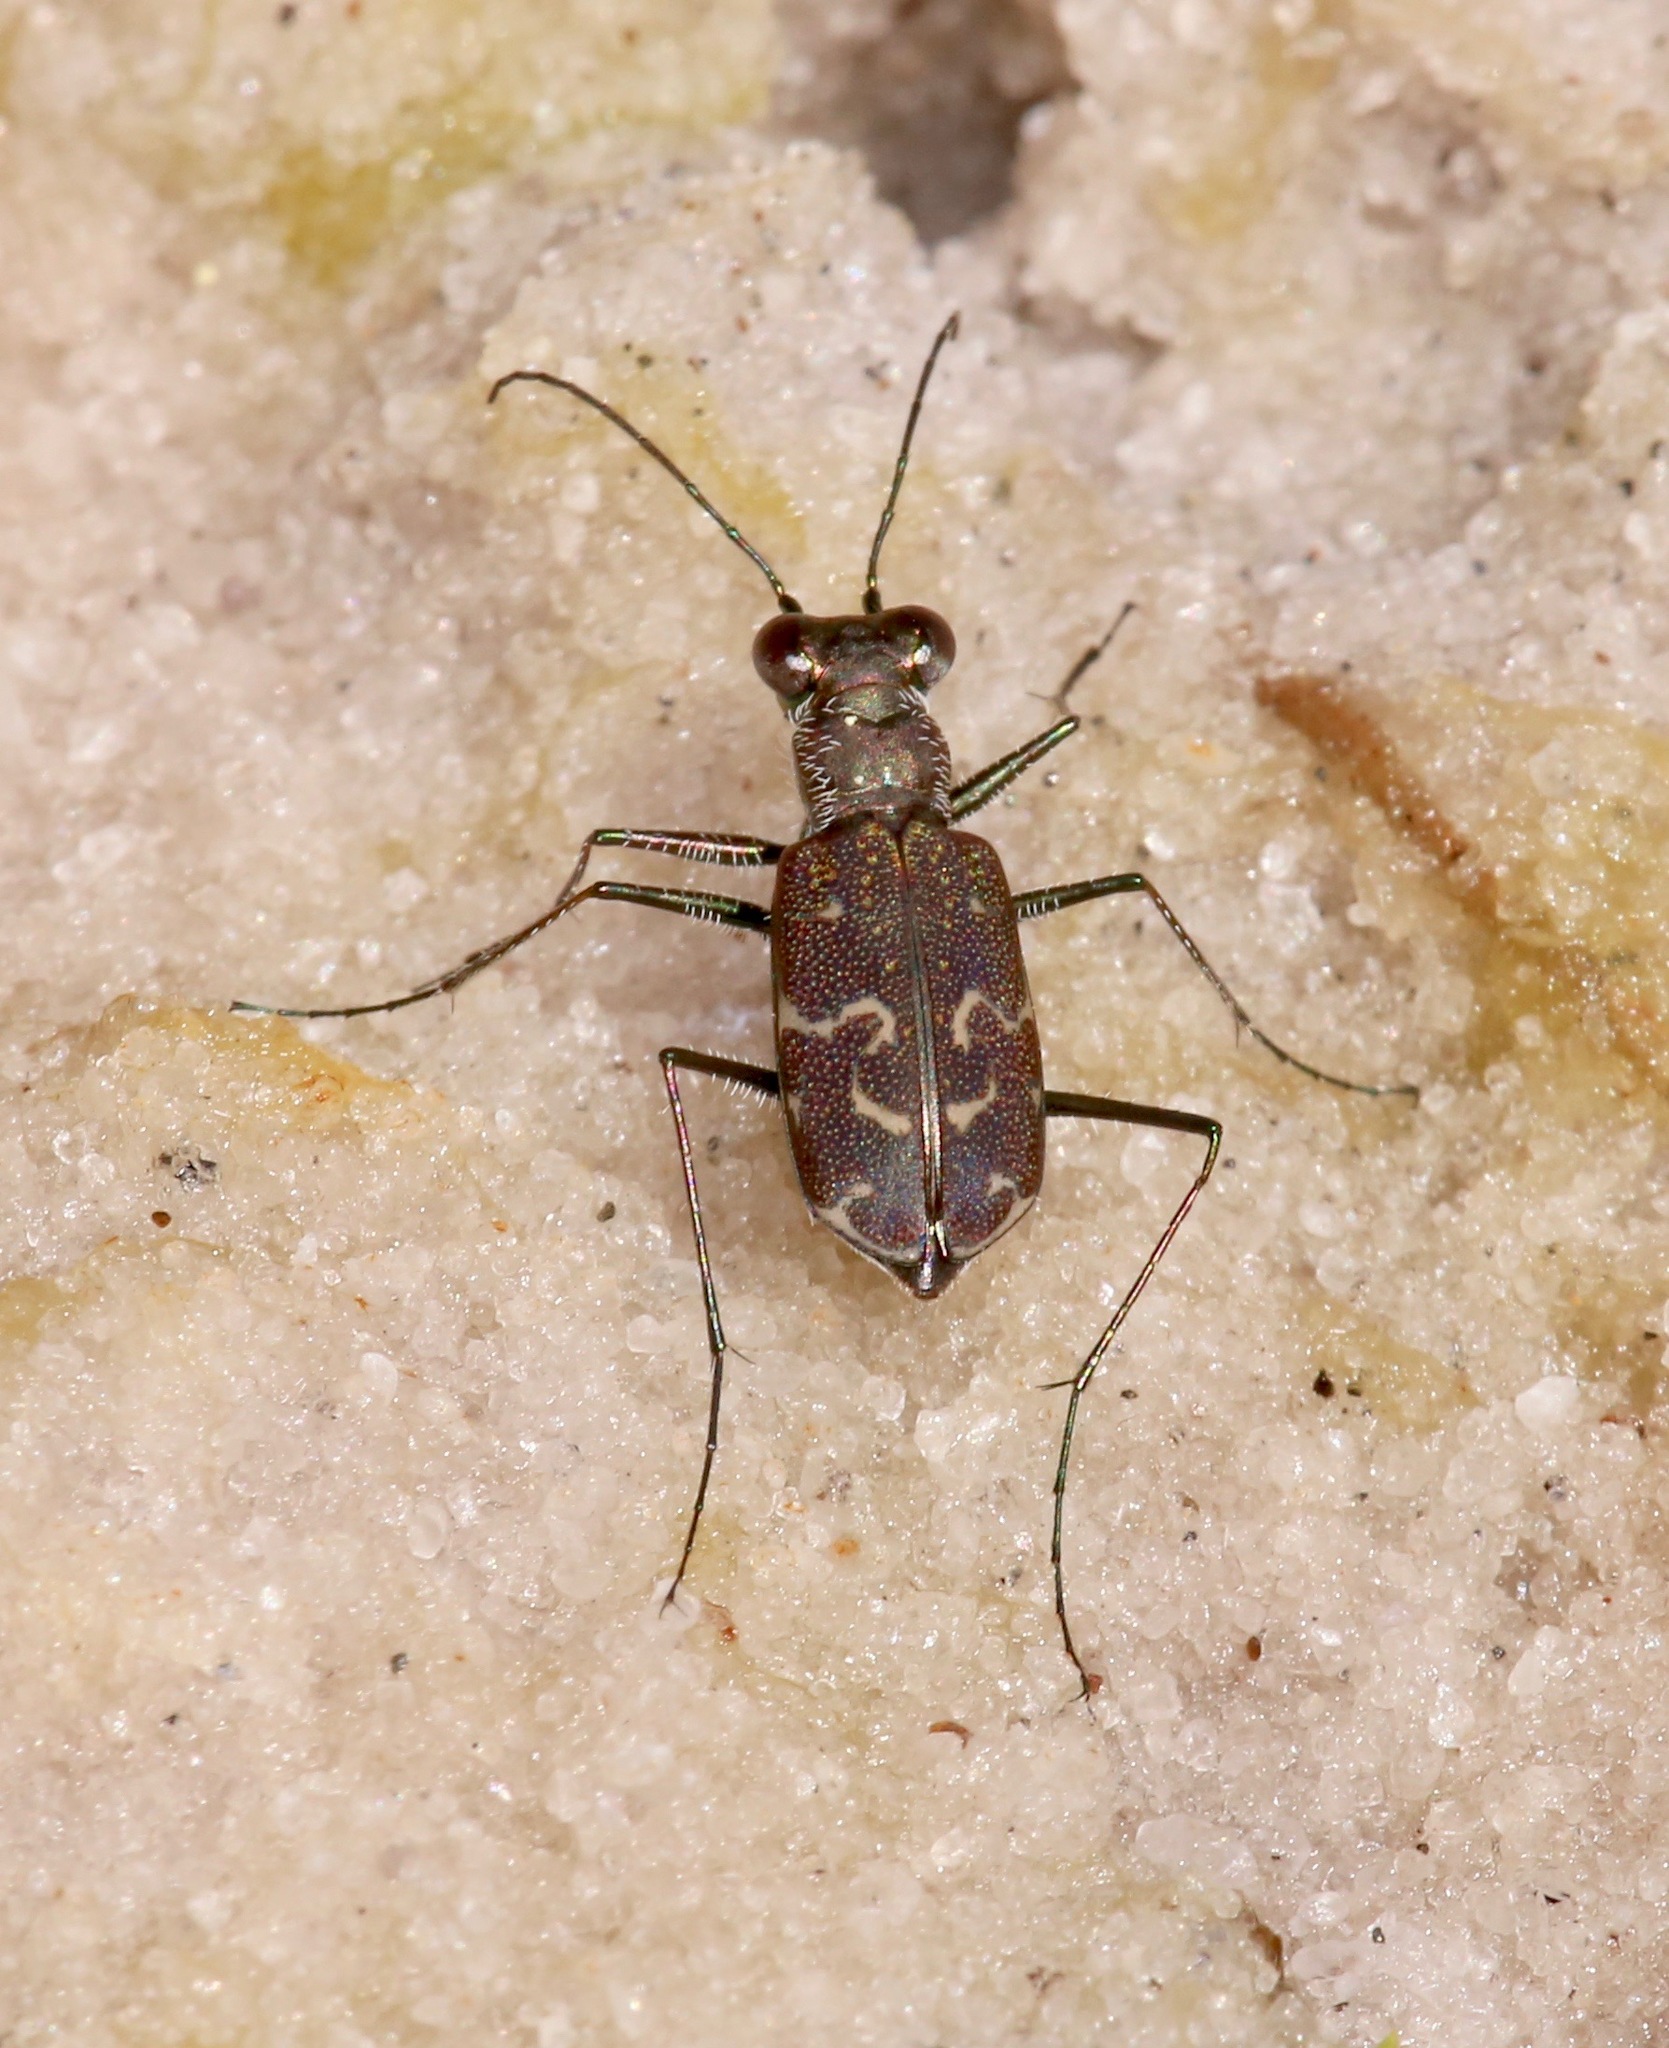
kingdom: Animalia
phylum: Arthropoda
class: Insecta
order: Coleoptera
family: Carabidae
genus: Cicindela
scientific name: Cicindela trifasciata
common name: Mudflat tiger beetle
